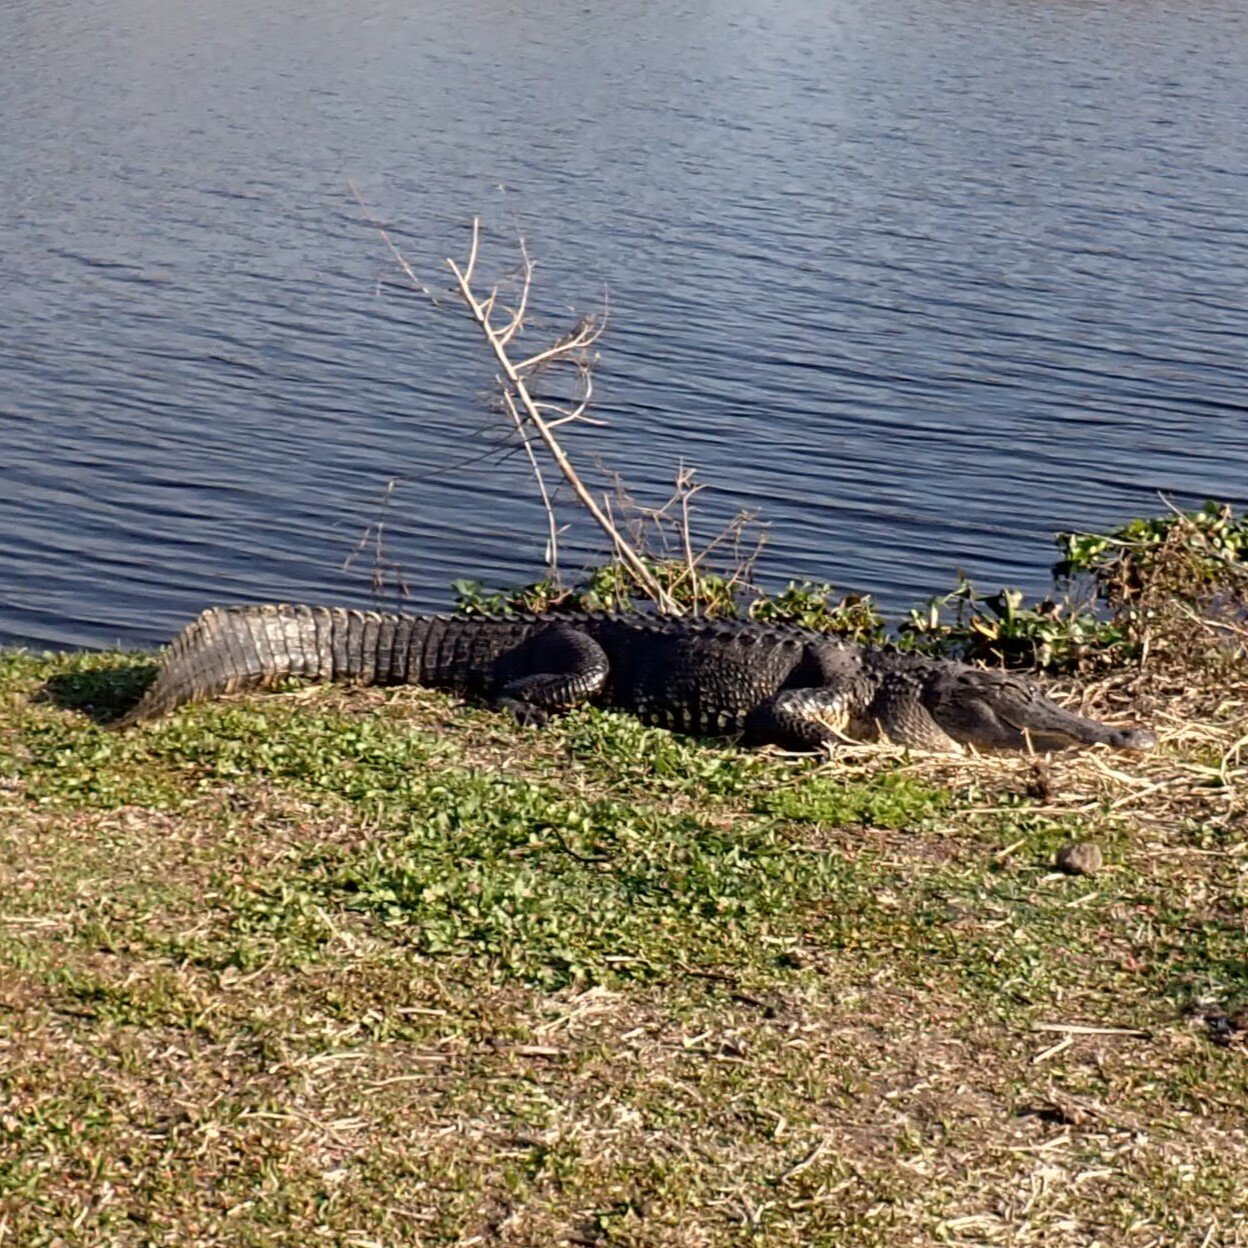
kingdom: Animalia
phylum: Chordata
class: Crocodylia
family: Alligatoridae
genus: Alligator
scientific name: Alligator mississippiensis
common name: American alligator
